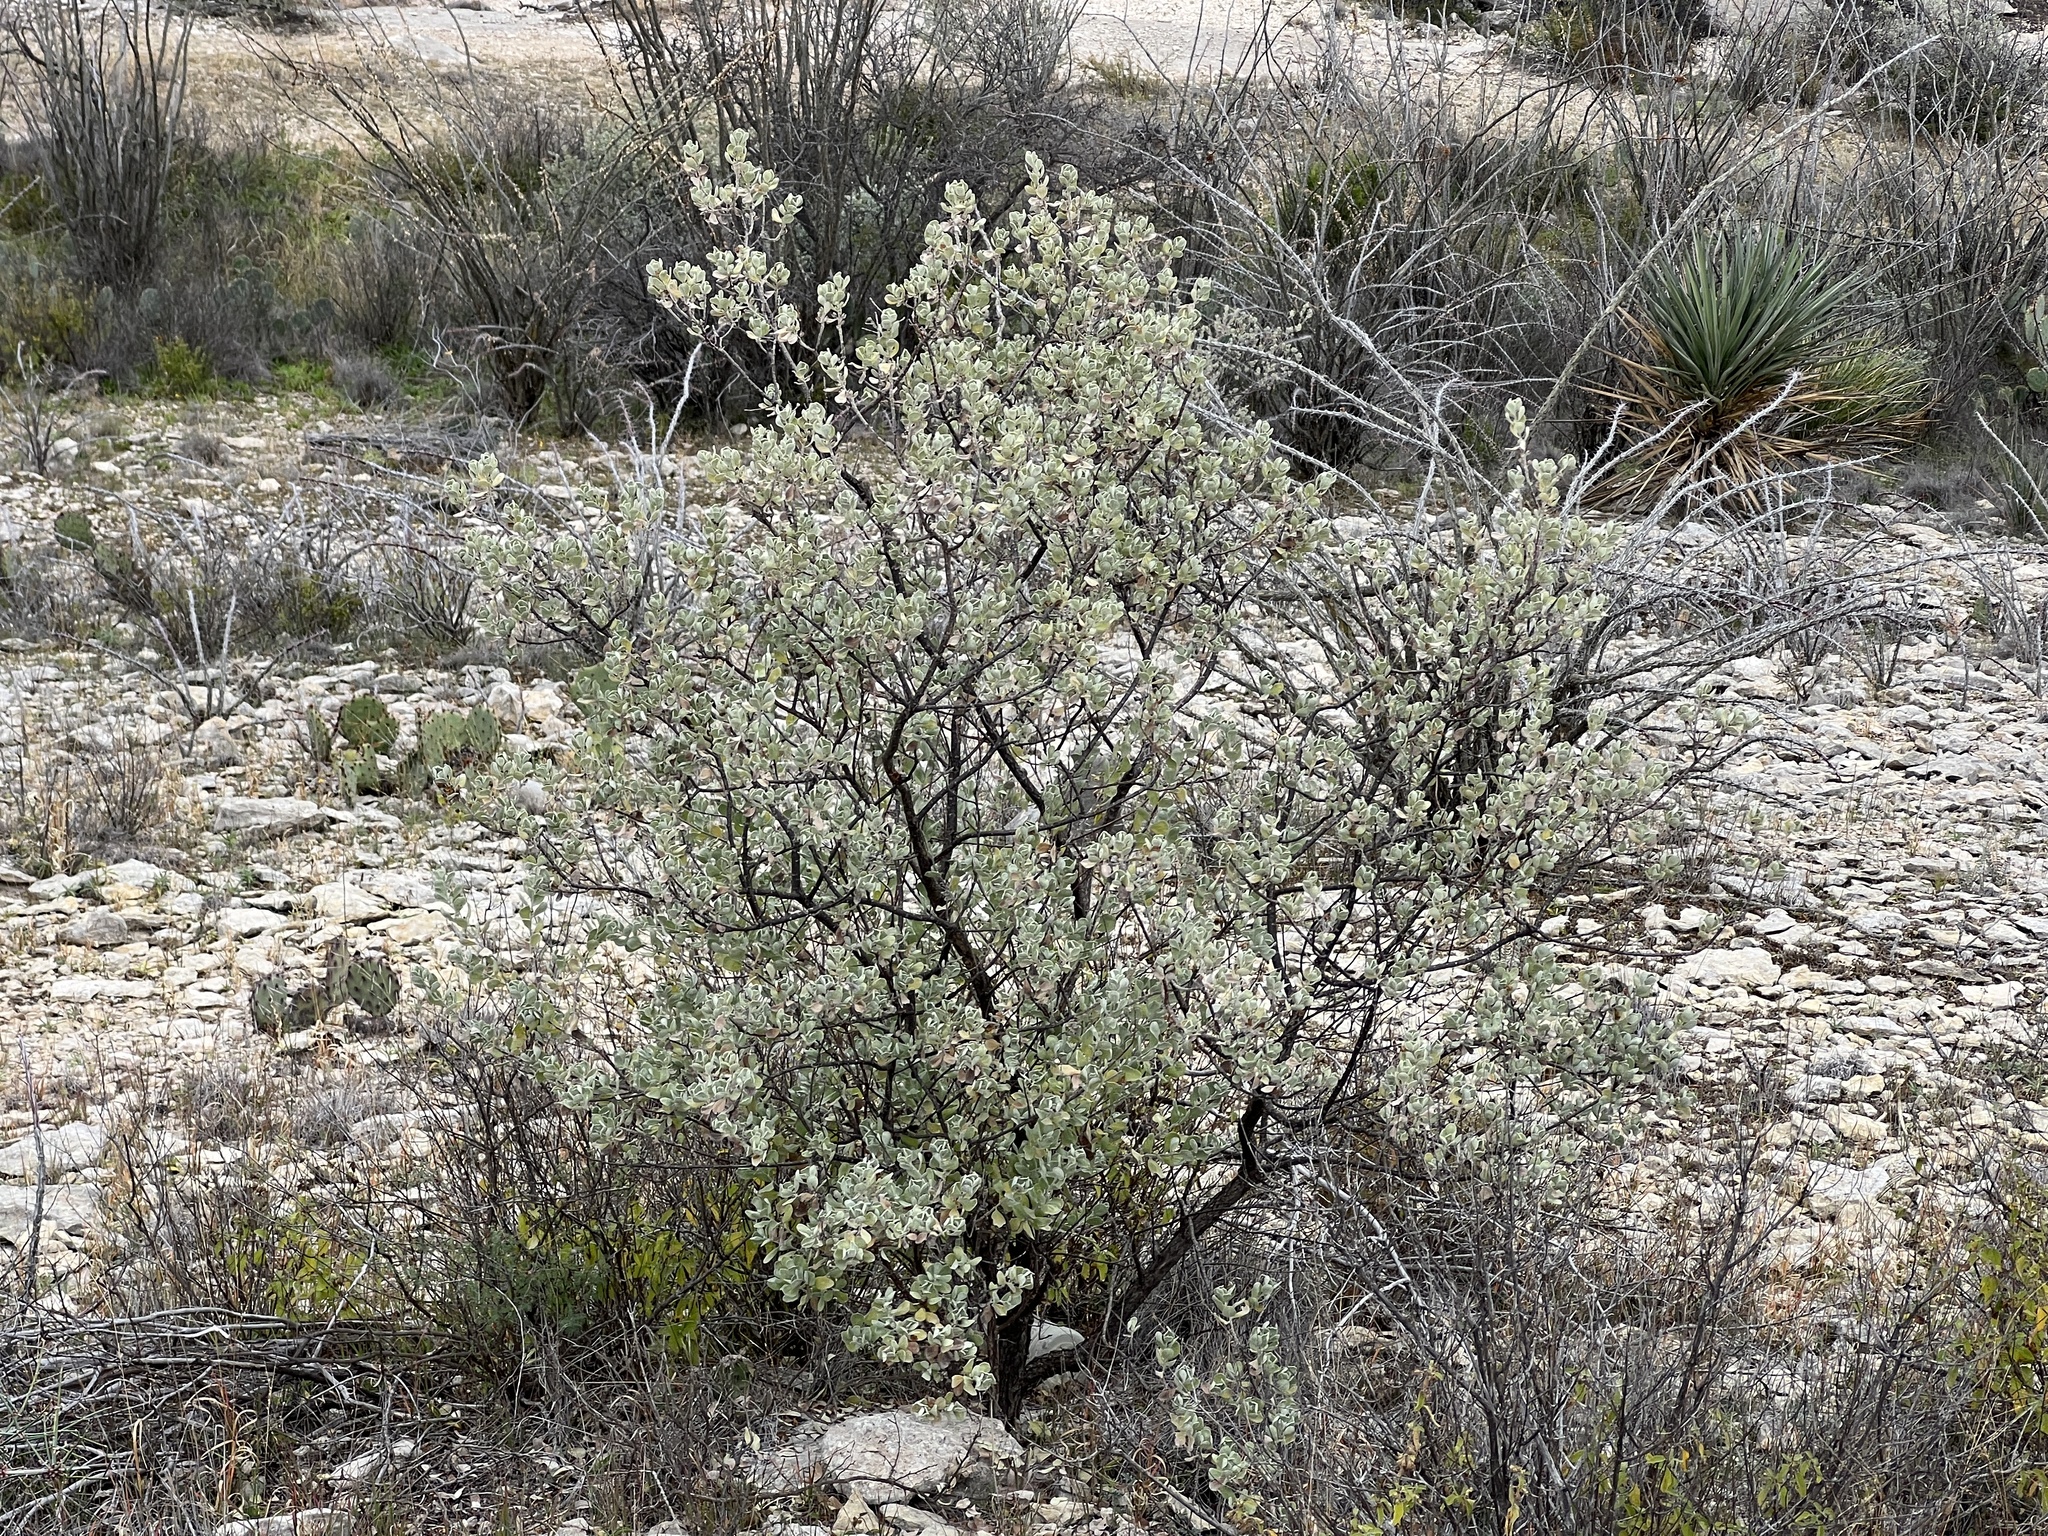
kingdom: Plantae
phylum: Tracheophyta
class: Magnoliopsida
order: Lamiales
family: Scrophulariaceae
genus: Leucophyllum
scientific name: Leucophyllum frutescens
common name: Texas silverleaf
